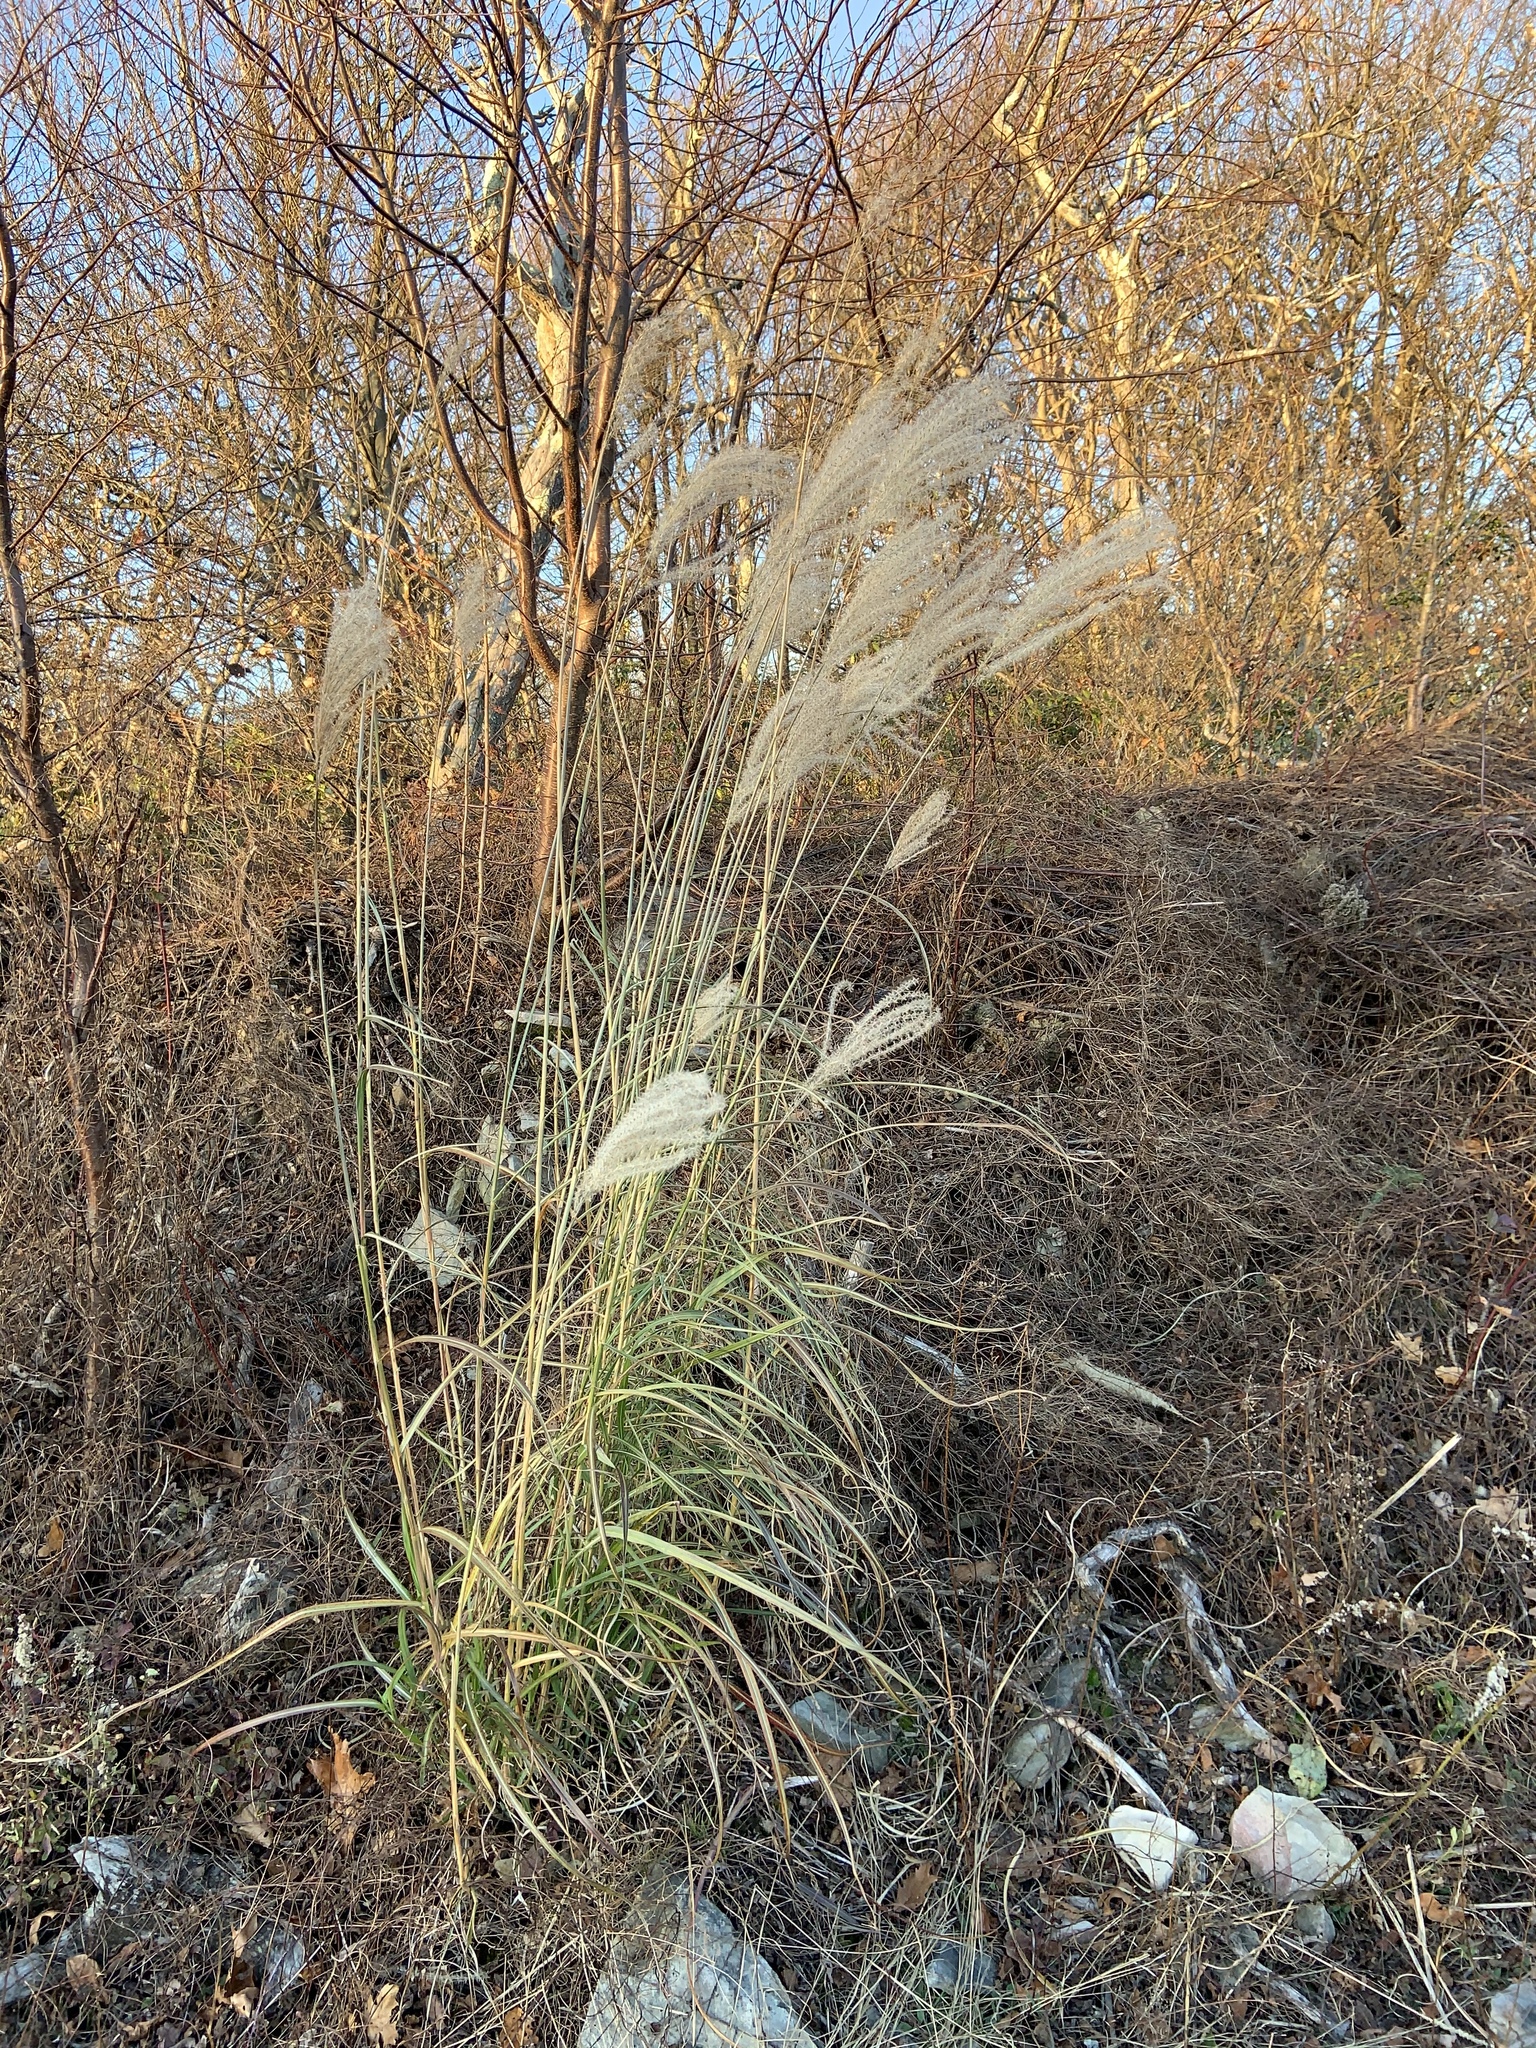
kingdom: Plantae
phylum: Tracheophyta
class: Liliopsida
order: Poales
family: Poaceae
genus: Miscanthus
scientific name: Miscanthus sinensis
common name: Chinese silvergrass
